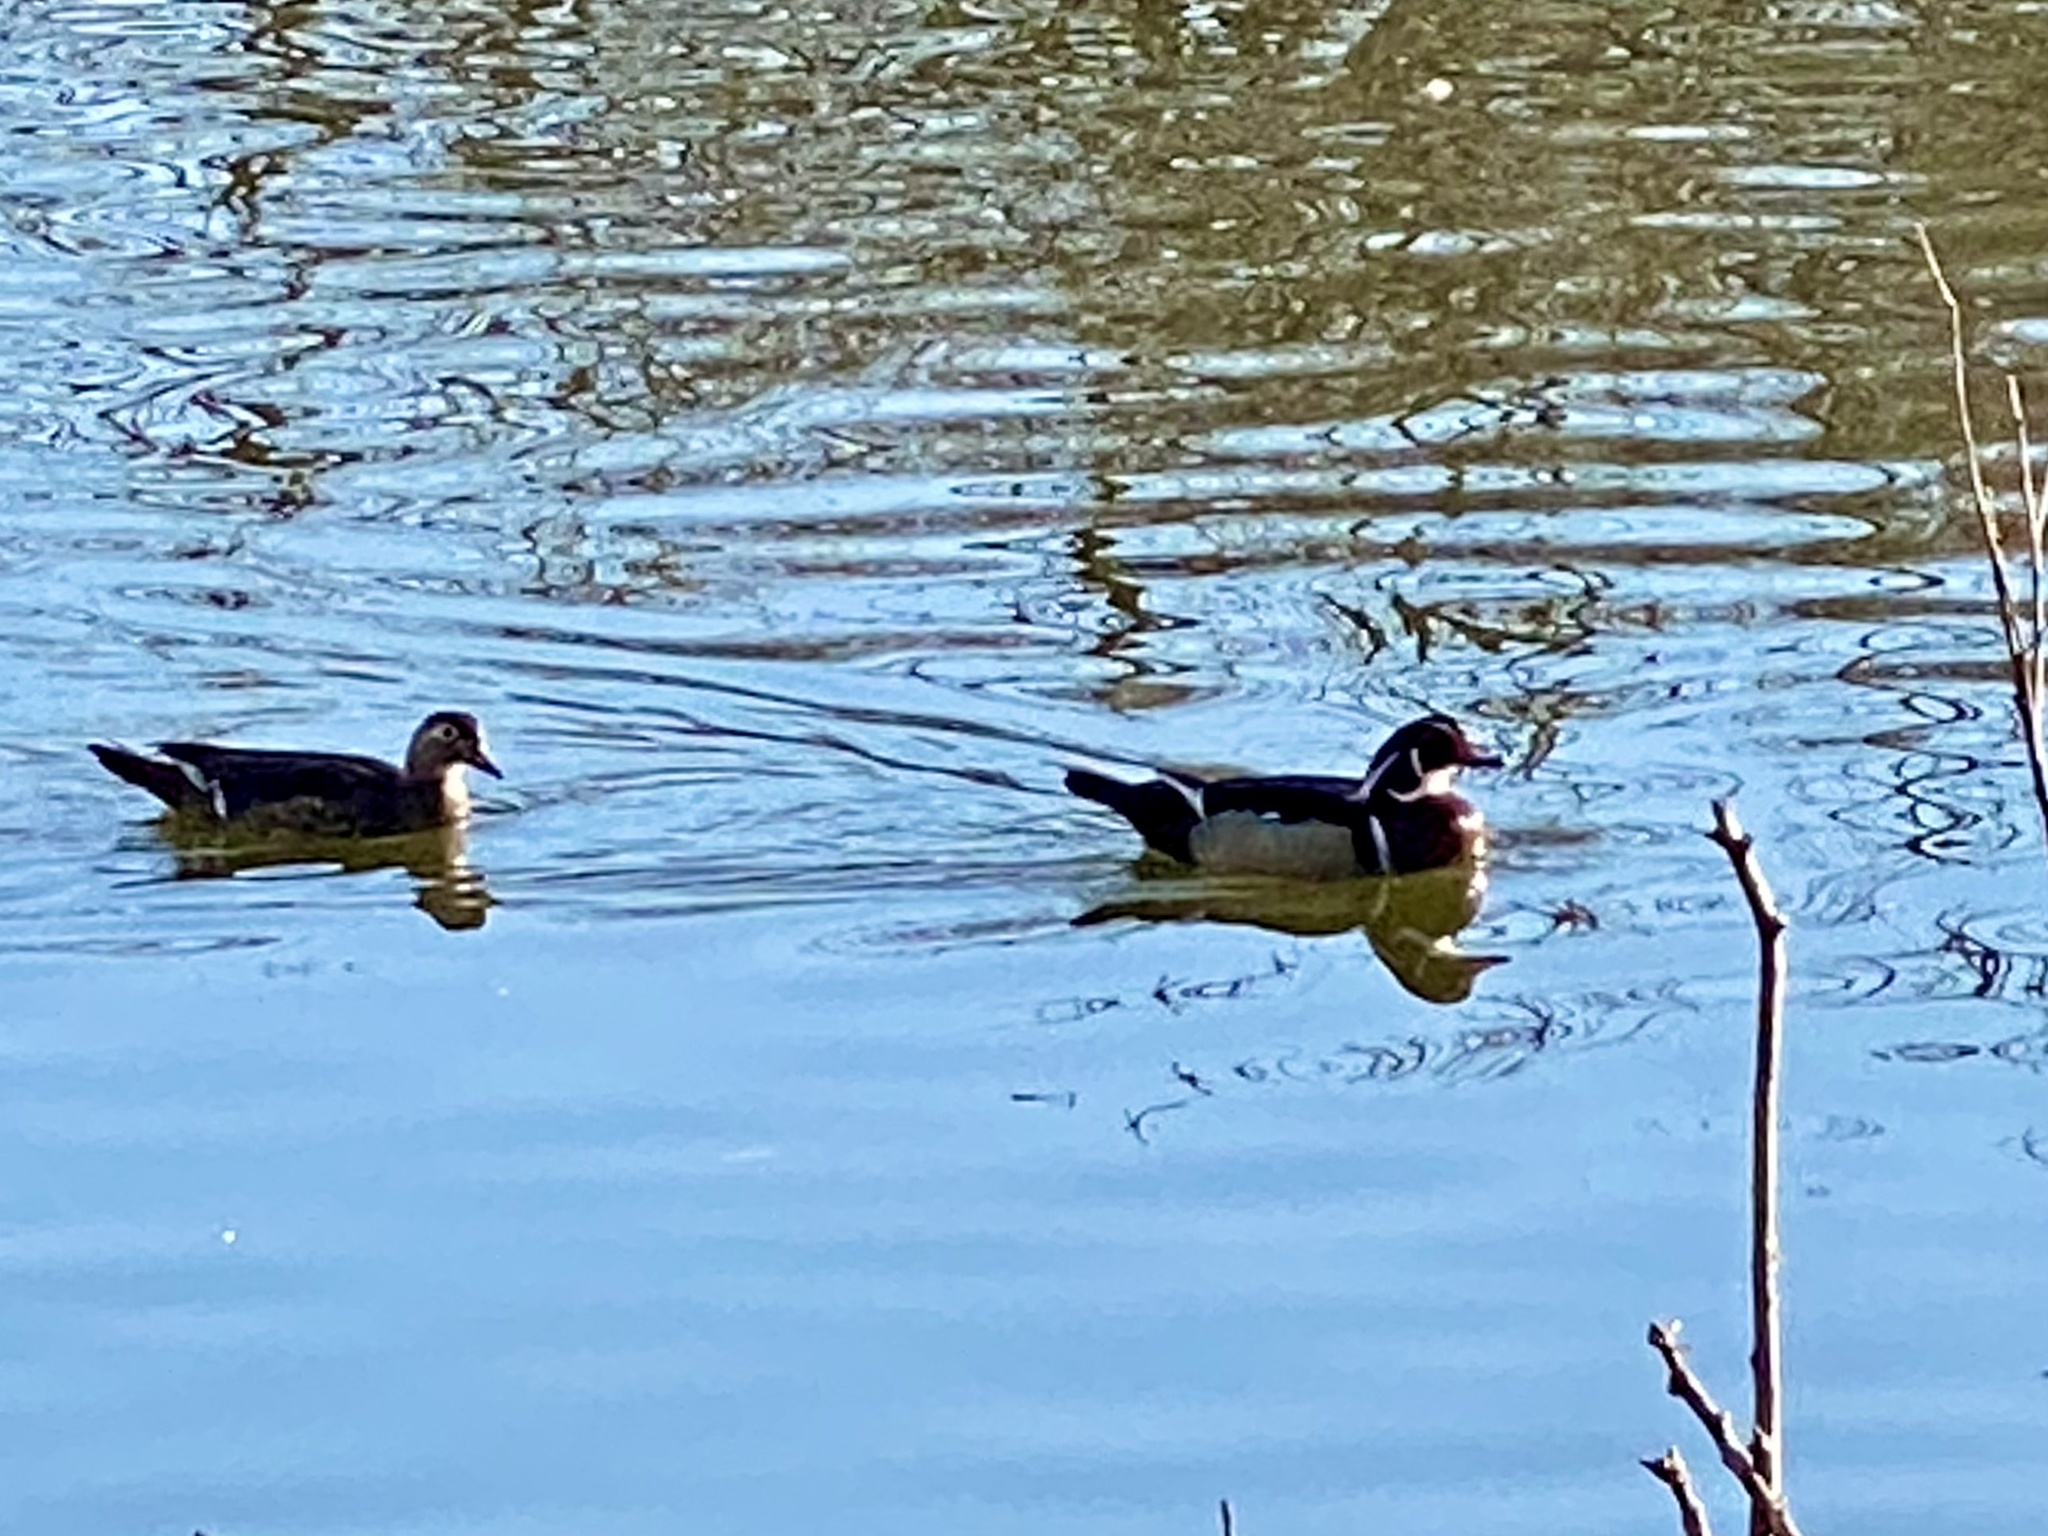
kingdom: Animalia
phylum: Chordata
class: Aves
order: Anseriformes
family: Anatidae
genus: Aix
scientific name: Aix sponsa
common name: Wood duck
